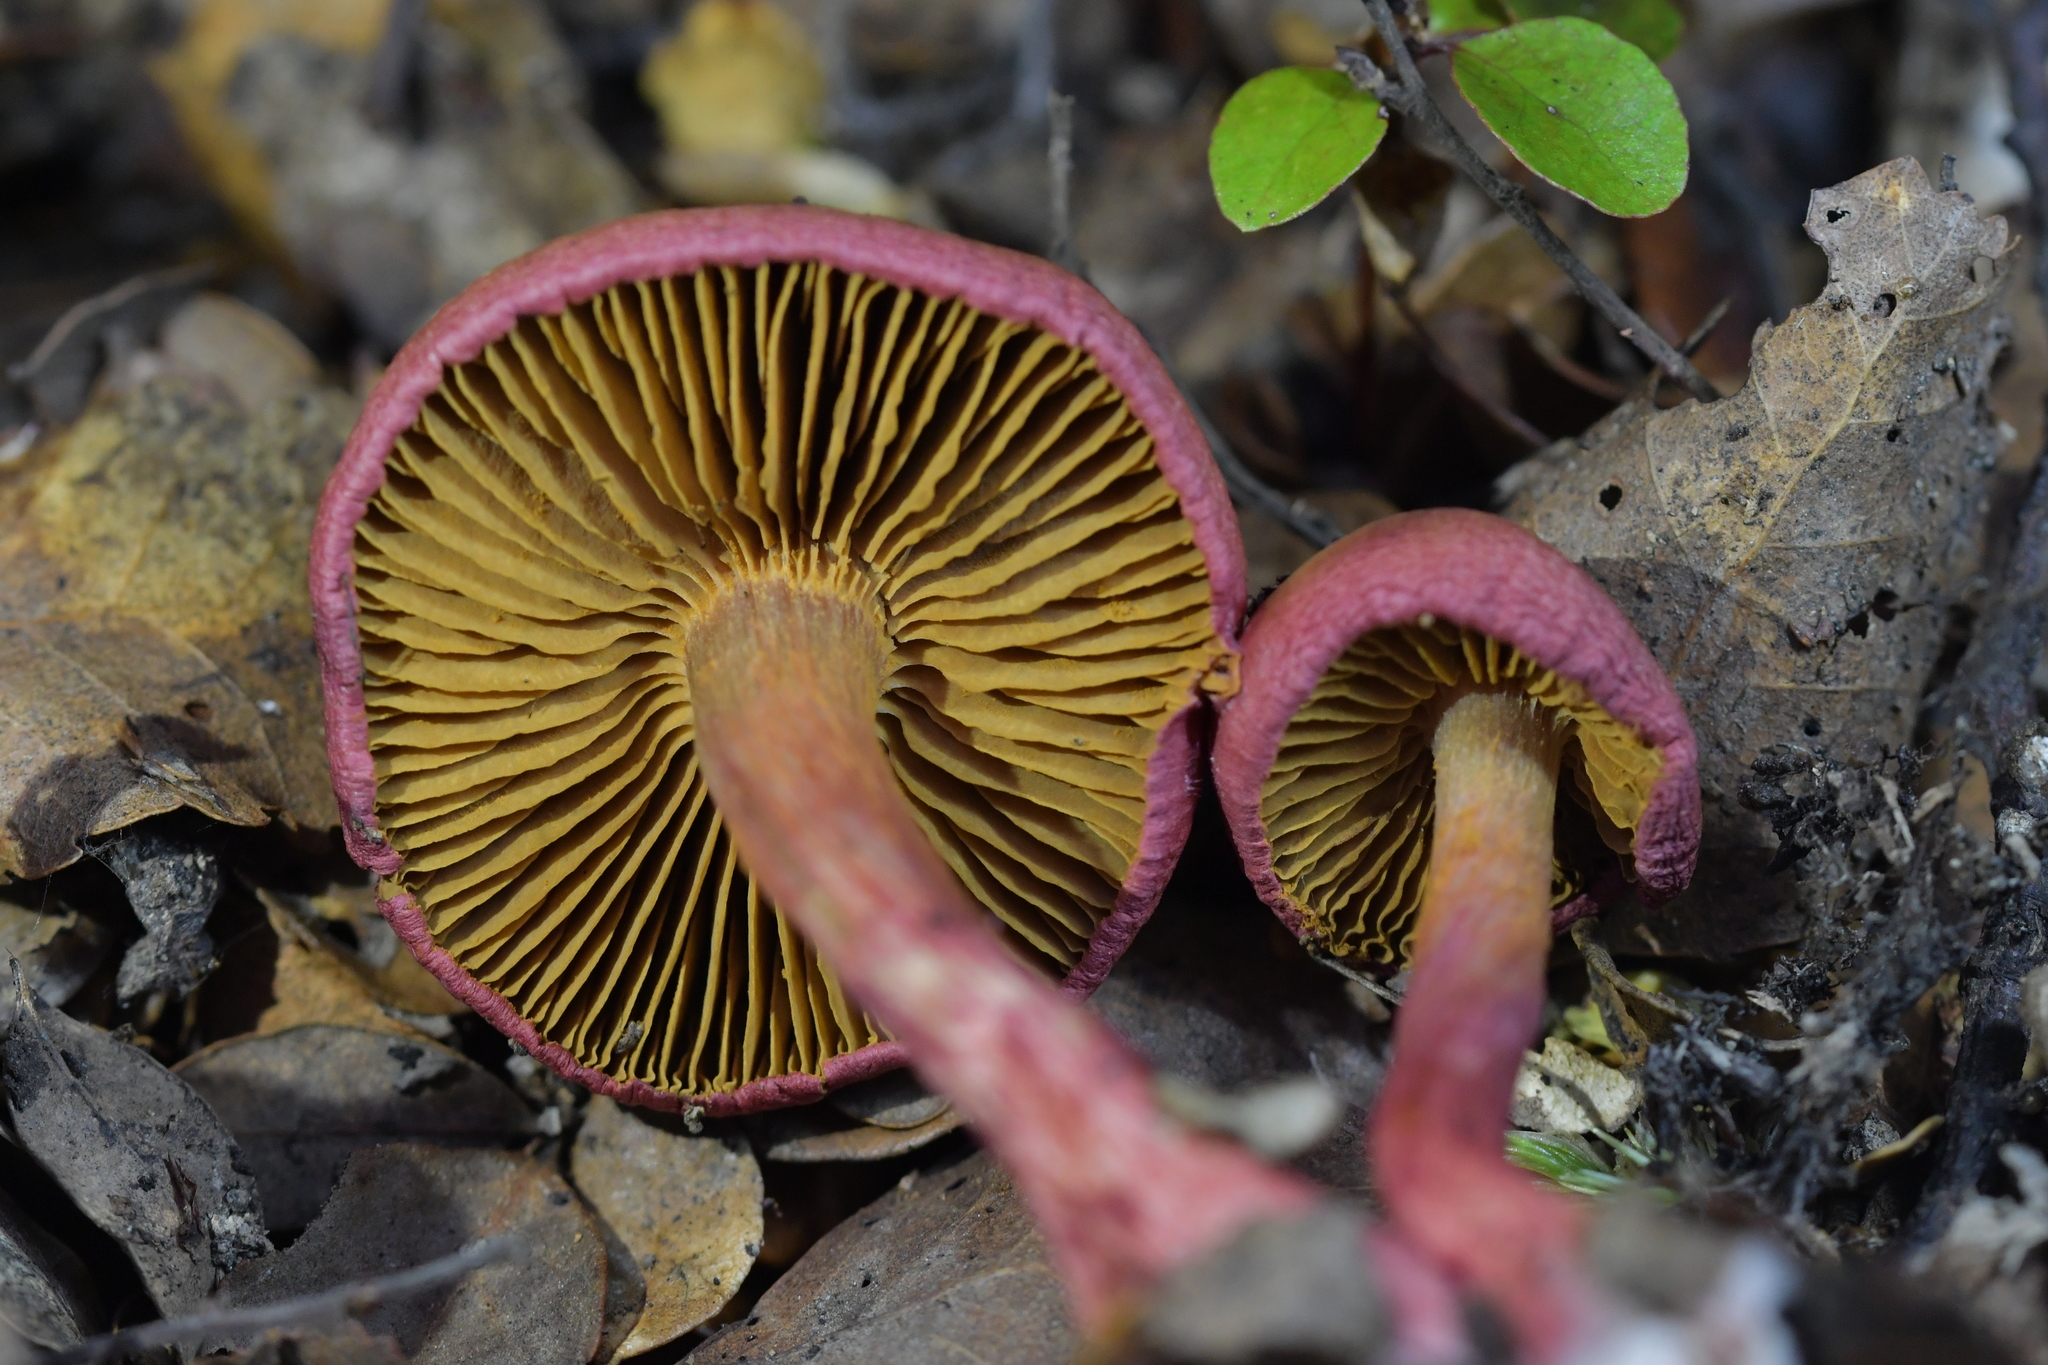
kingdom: Fungi
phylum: Basidiomycota
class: Agaricomycetes
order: Agaricales
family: Cortinariaceae
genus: Cortinarius
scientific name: Cortinarius cardinalis
